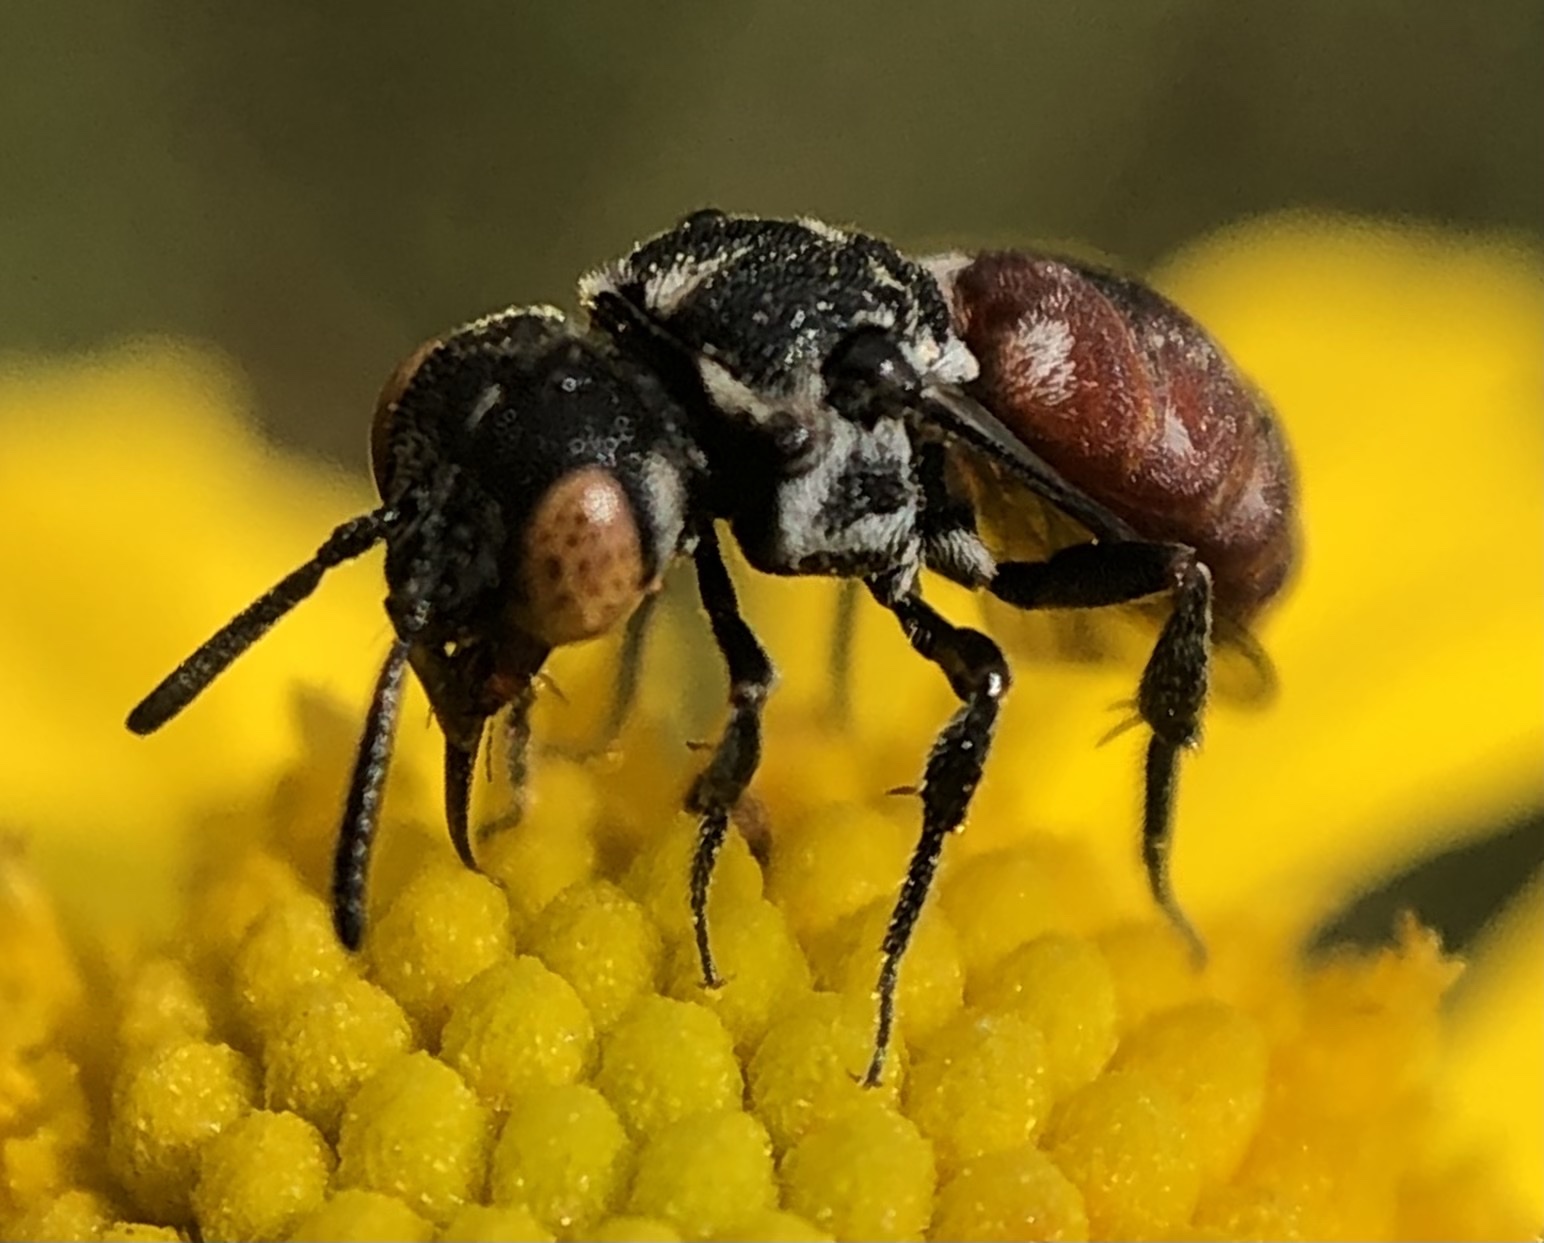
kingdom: Animalia
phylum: Arthropoda
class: Insecta
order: Hymenoptera
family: Apidae
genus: Holcopasites
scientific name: Holcopasites calliopsidis
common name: Calliopsis cuckoo nomad bee
